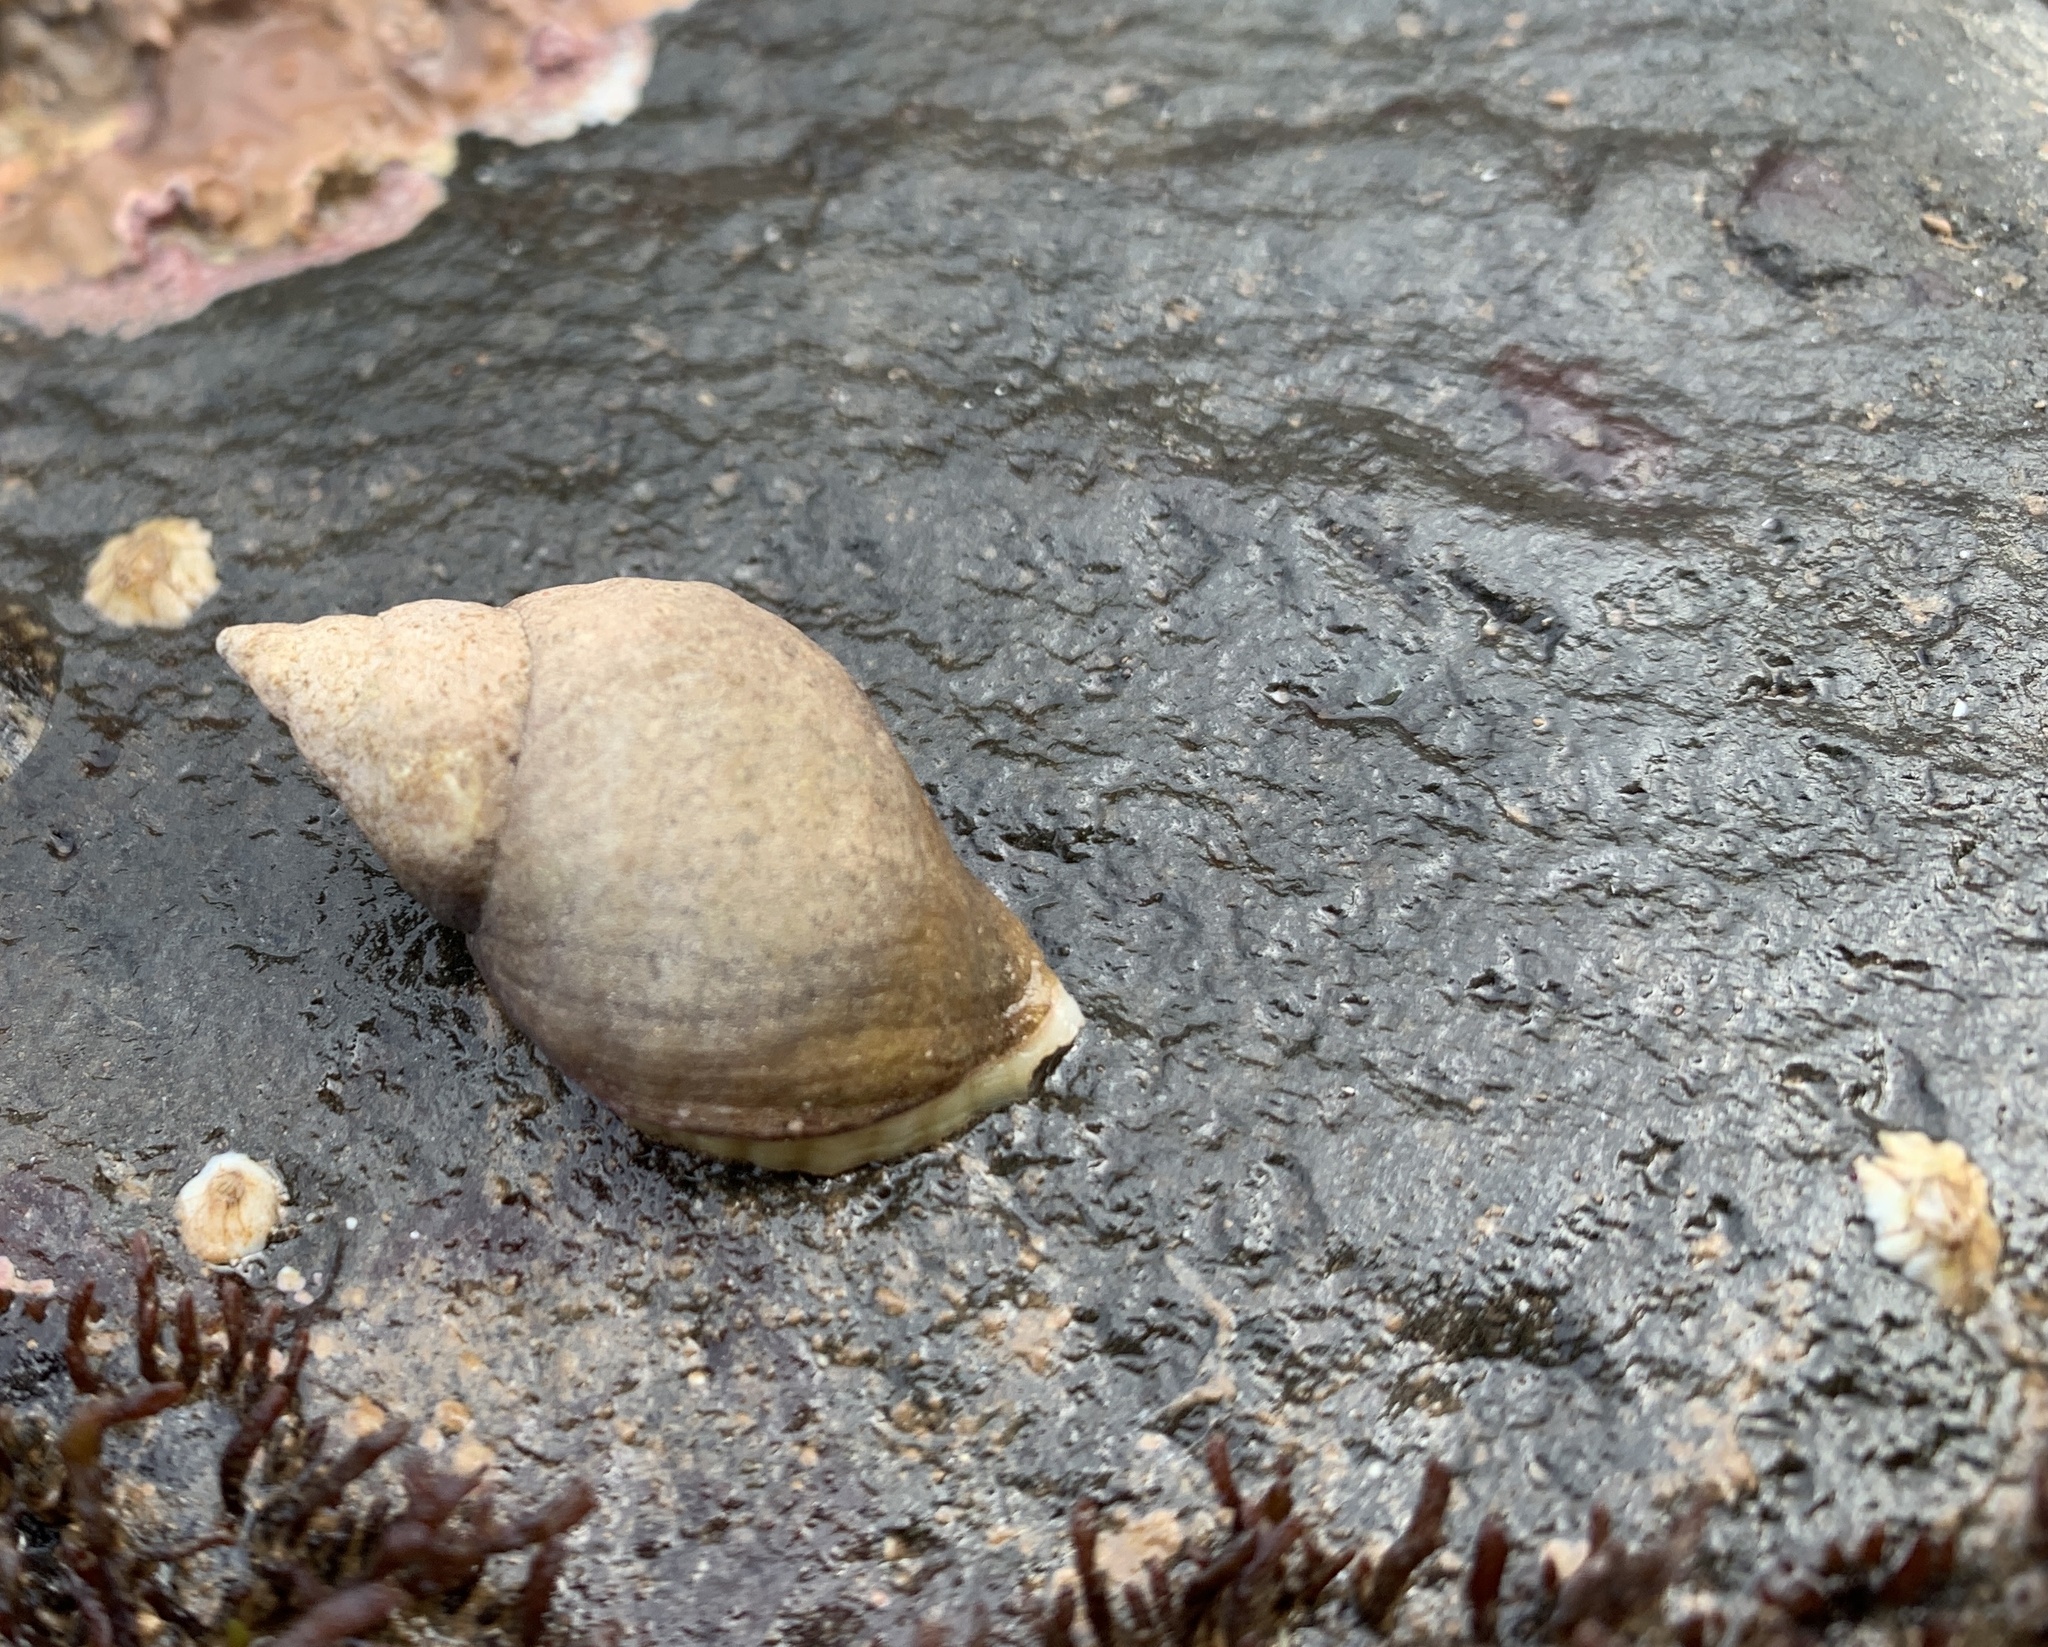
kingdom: Animalia
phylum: Mollusca
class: Gastropoda
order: Neogastropoda
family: Muricidae
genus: Nucella
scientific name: Nucella lapillus
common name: Dog whelk
